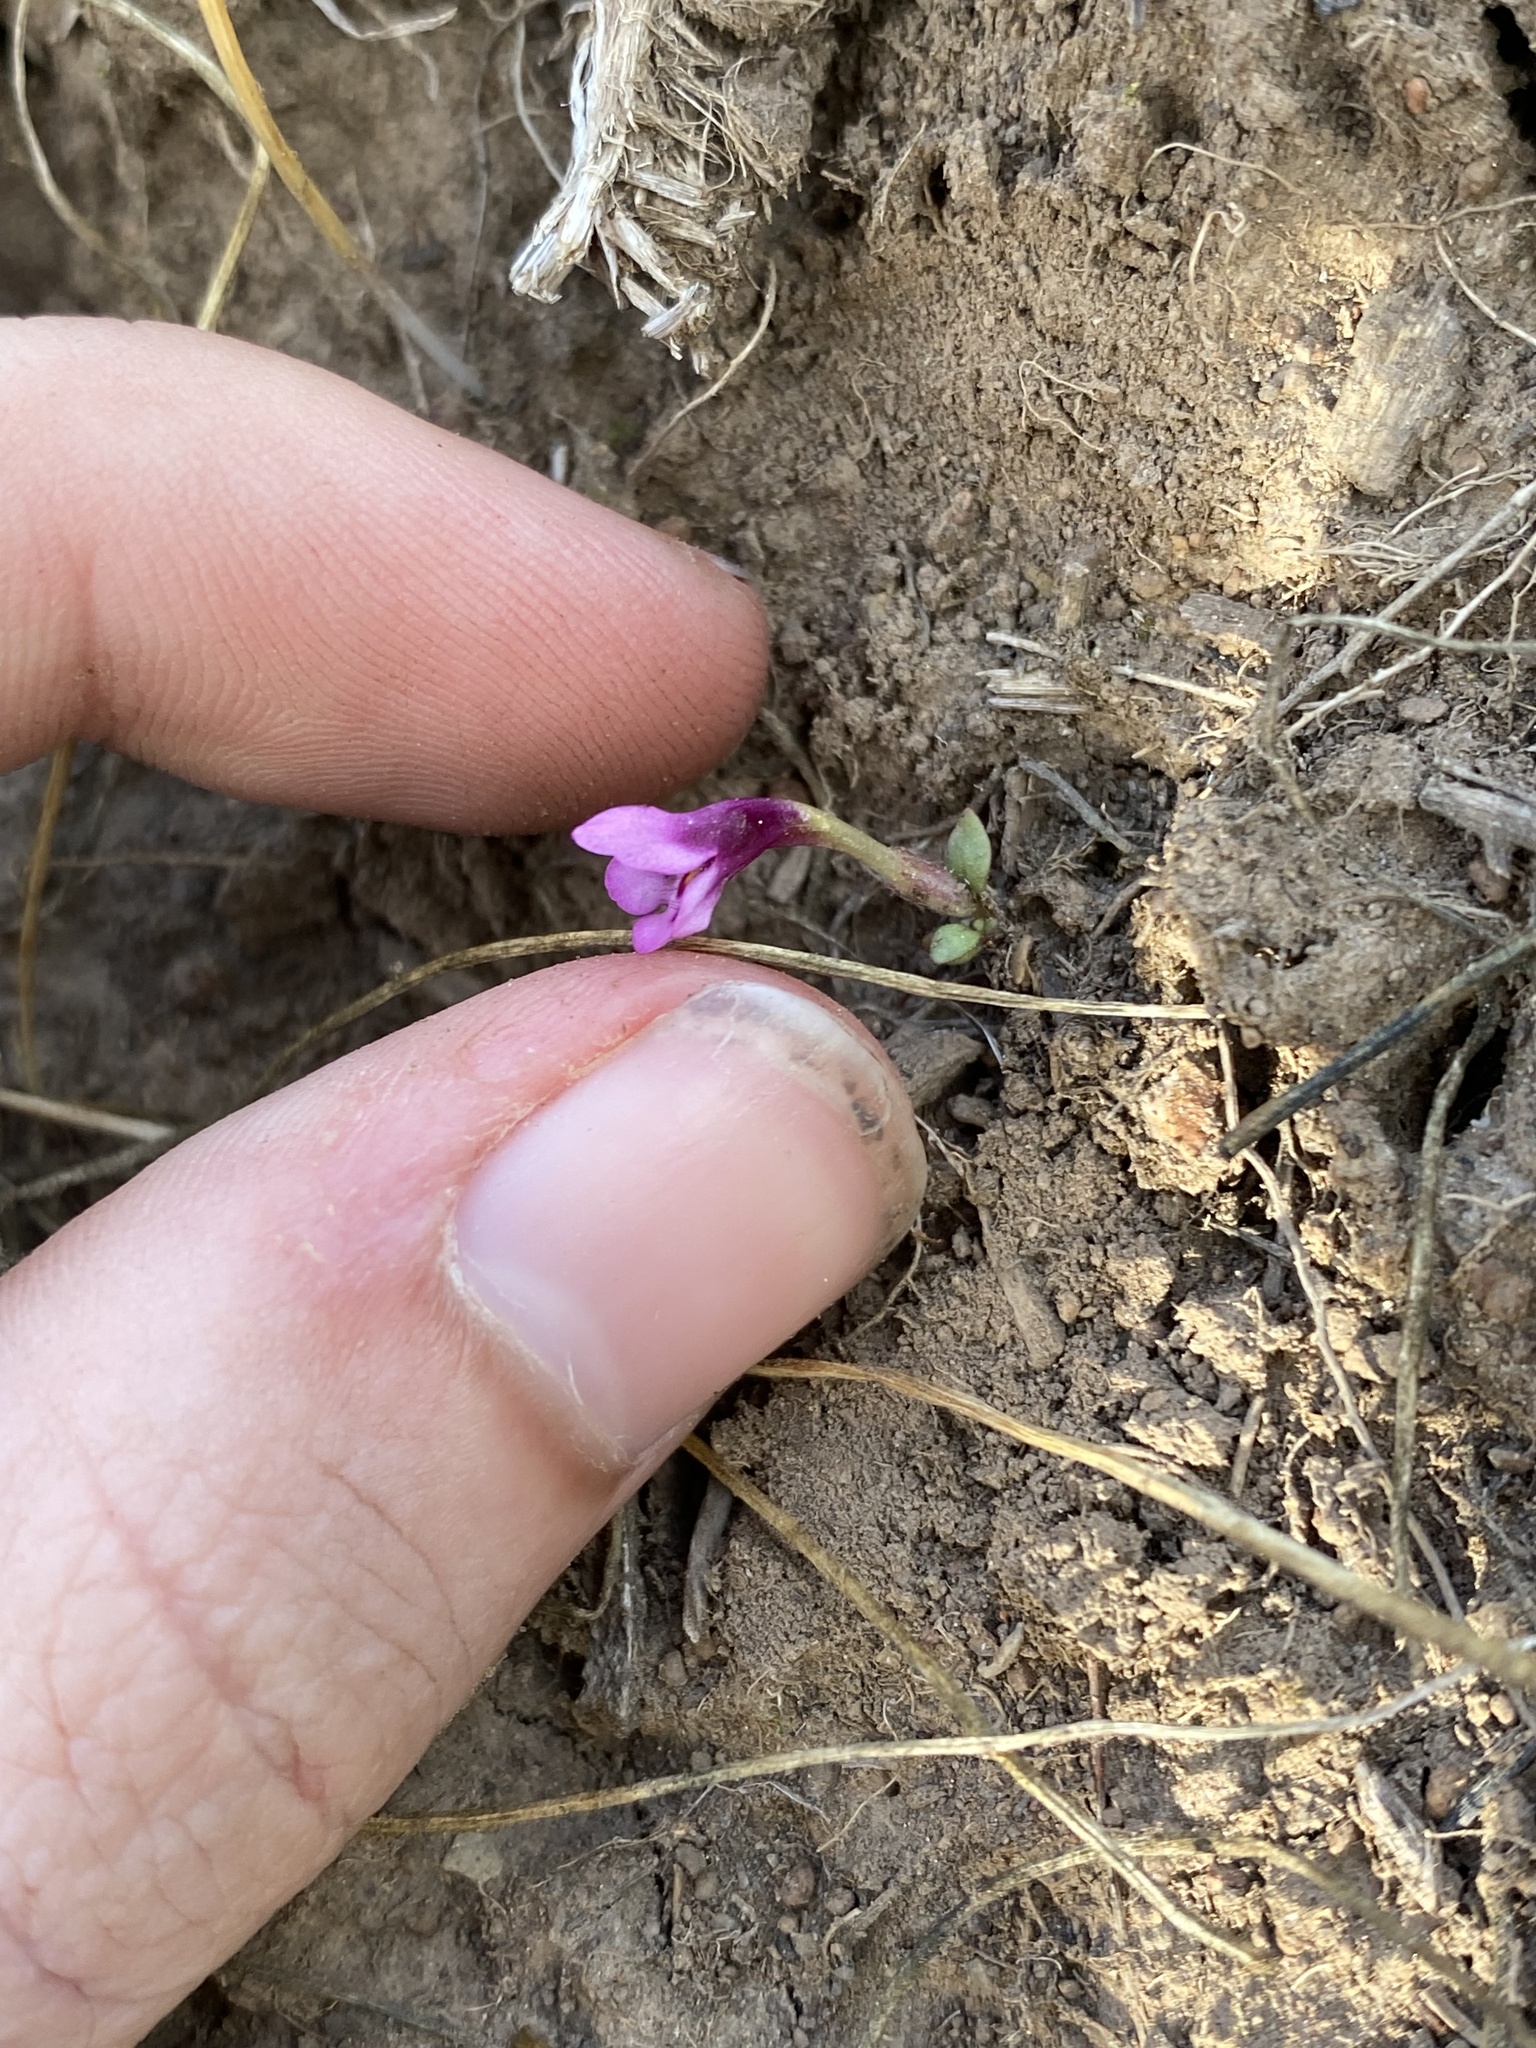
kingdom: Plantae
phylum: Tracheophyta
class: Magnoliopsida
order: Lamiales
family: Phrymaceae
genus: Diplacus
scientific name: Diplacus nanus
